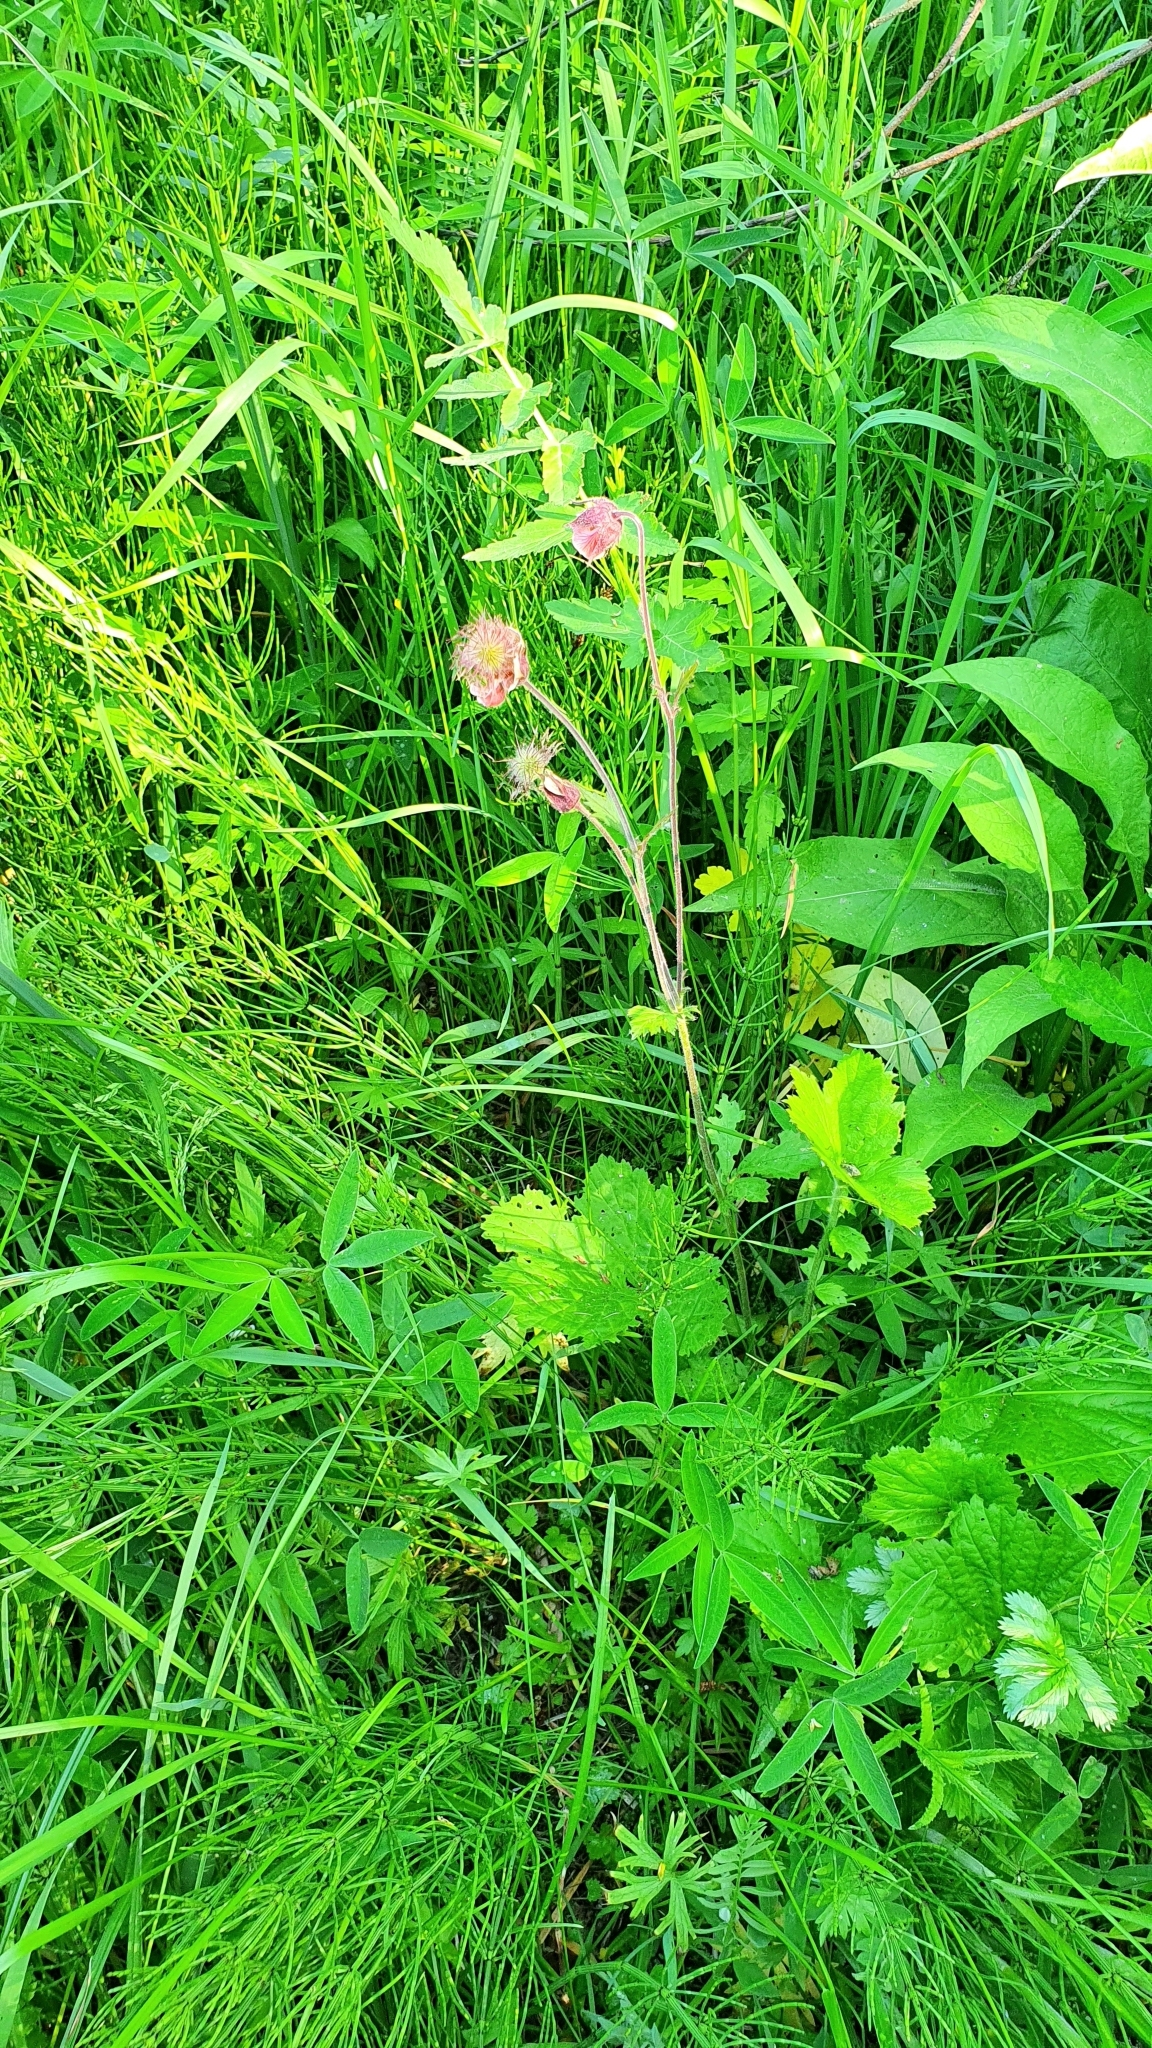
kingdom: Plantae
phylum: Tracheophyta
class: Magnoliopsida
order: Rosales
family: Rosaceae
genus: Geum
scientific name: Geum rivale
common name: Water avens
